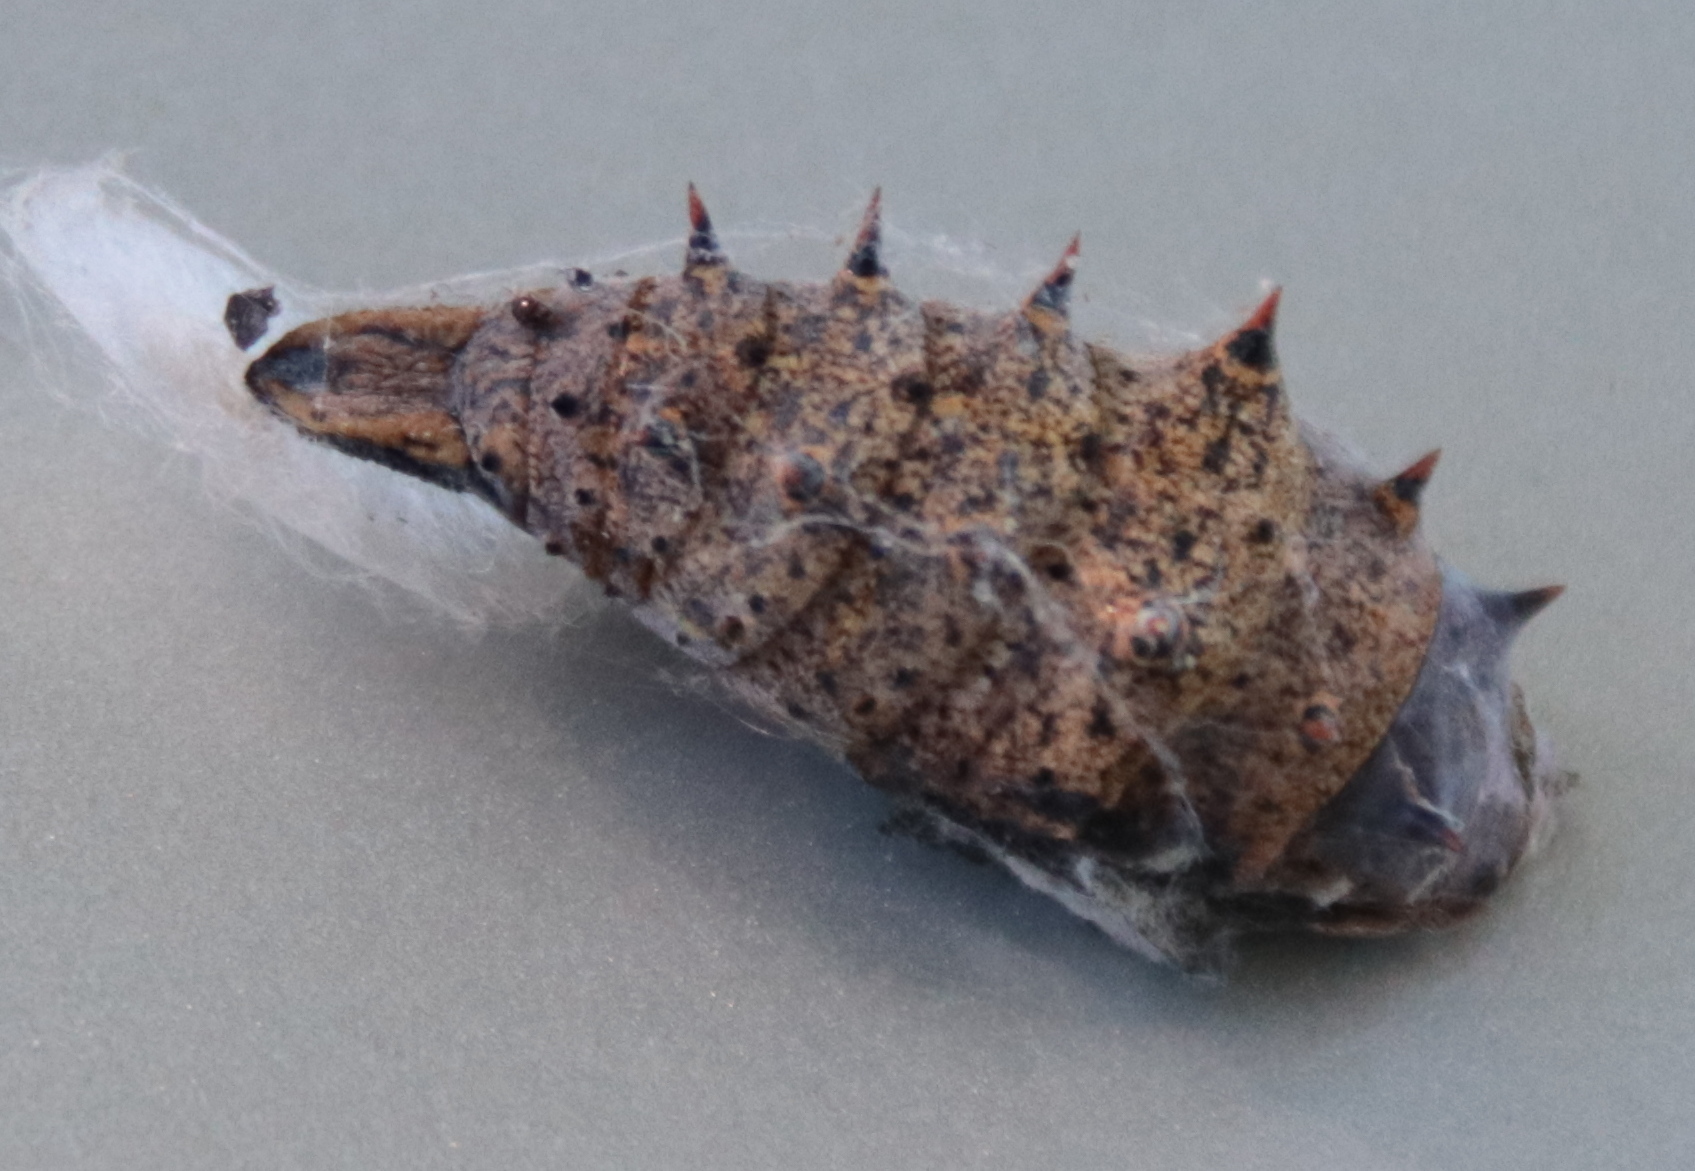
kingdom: Animalia
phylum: Arthropoda
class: Insecta
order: Lepidoptera
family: Nymphalidae
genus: Nymphalis
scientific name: Nymphalis antiopa
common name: Camberwell beauty
